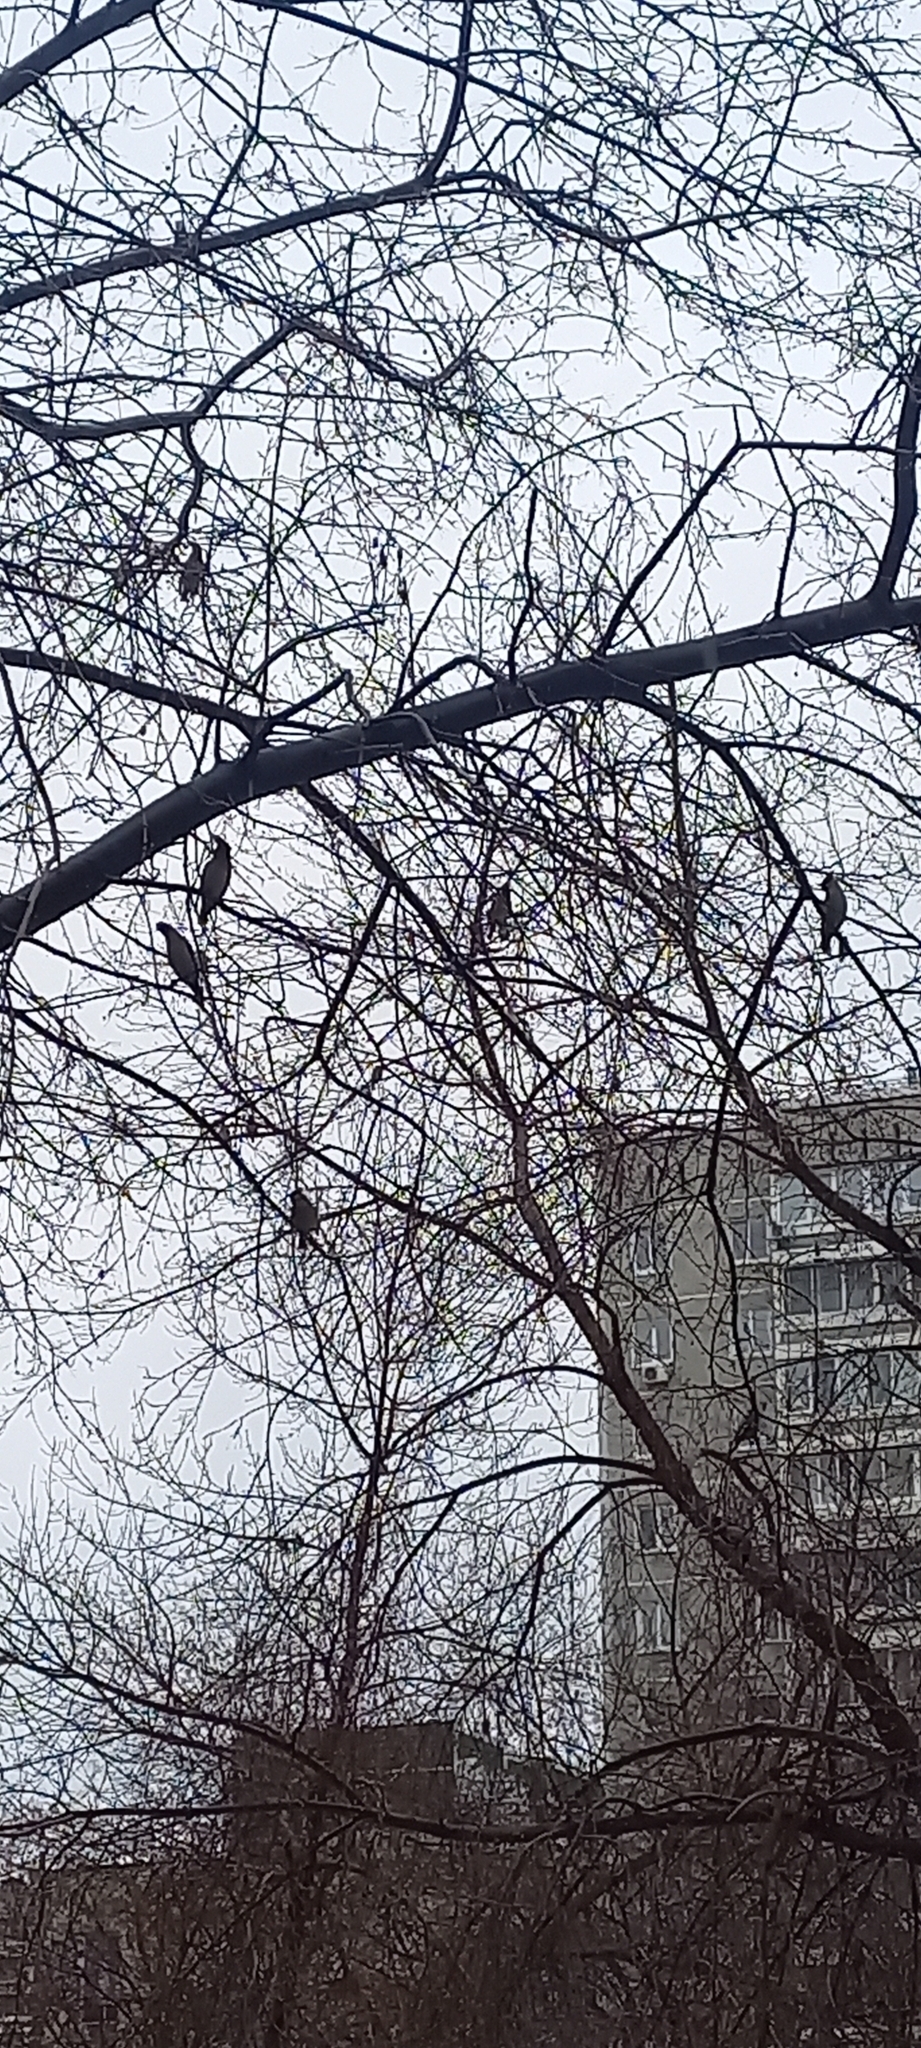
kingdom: Animalia
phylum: Chordata
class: Aves
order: Passeriformes
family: Bombycillidae
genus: Bombycilla
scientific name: Bombycilla garrulus
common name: Bohemian waxwing
